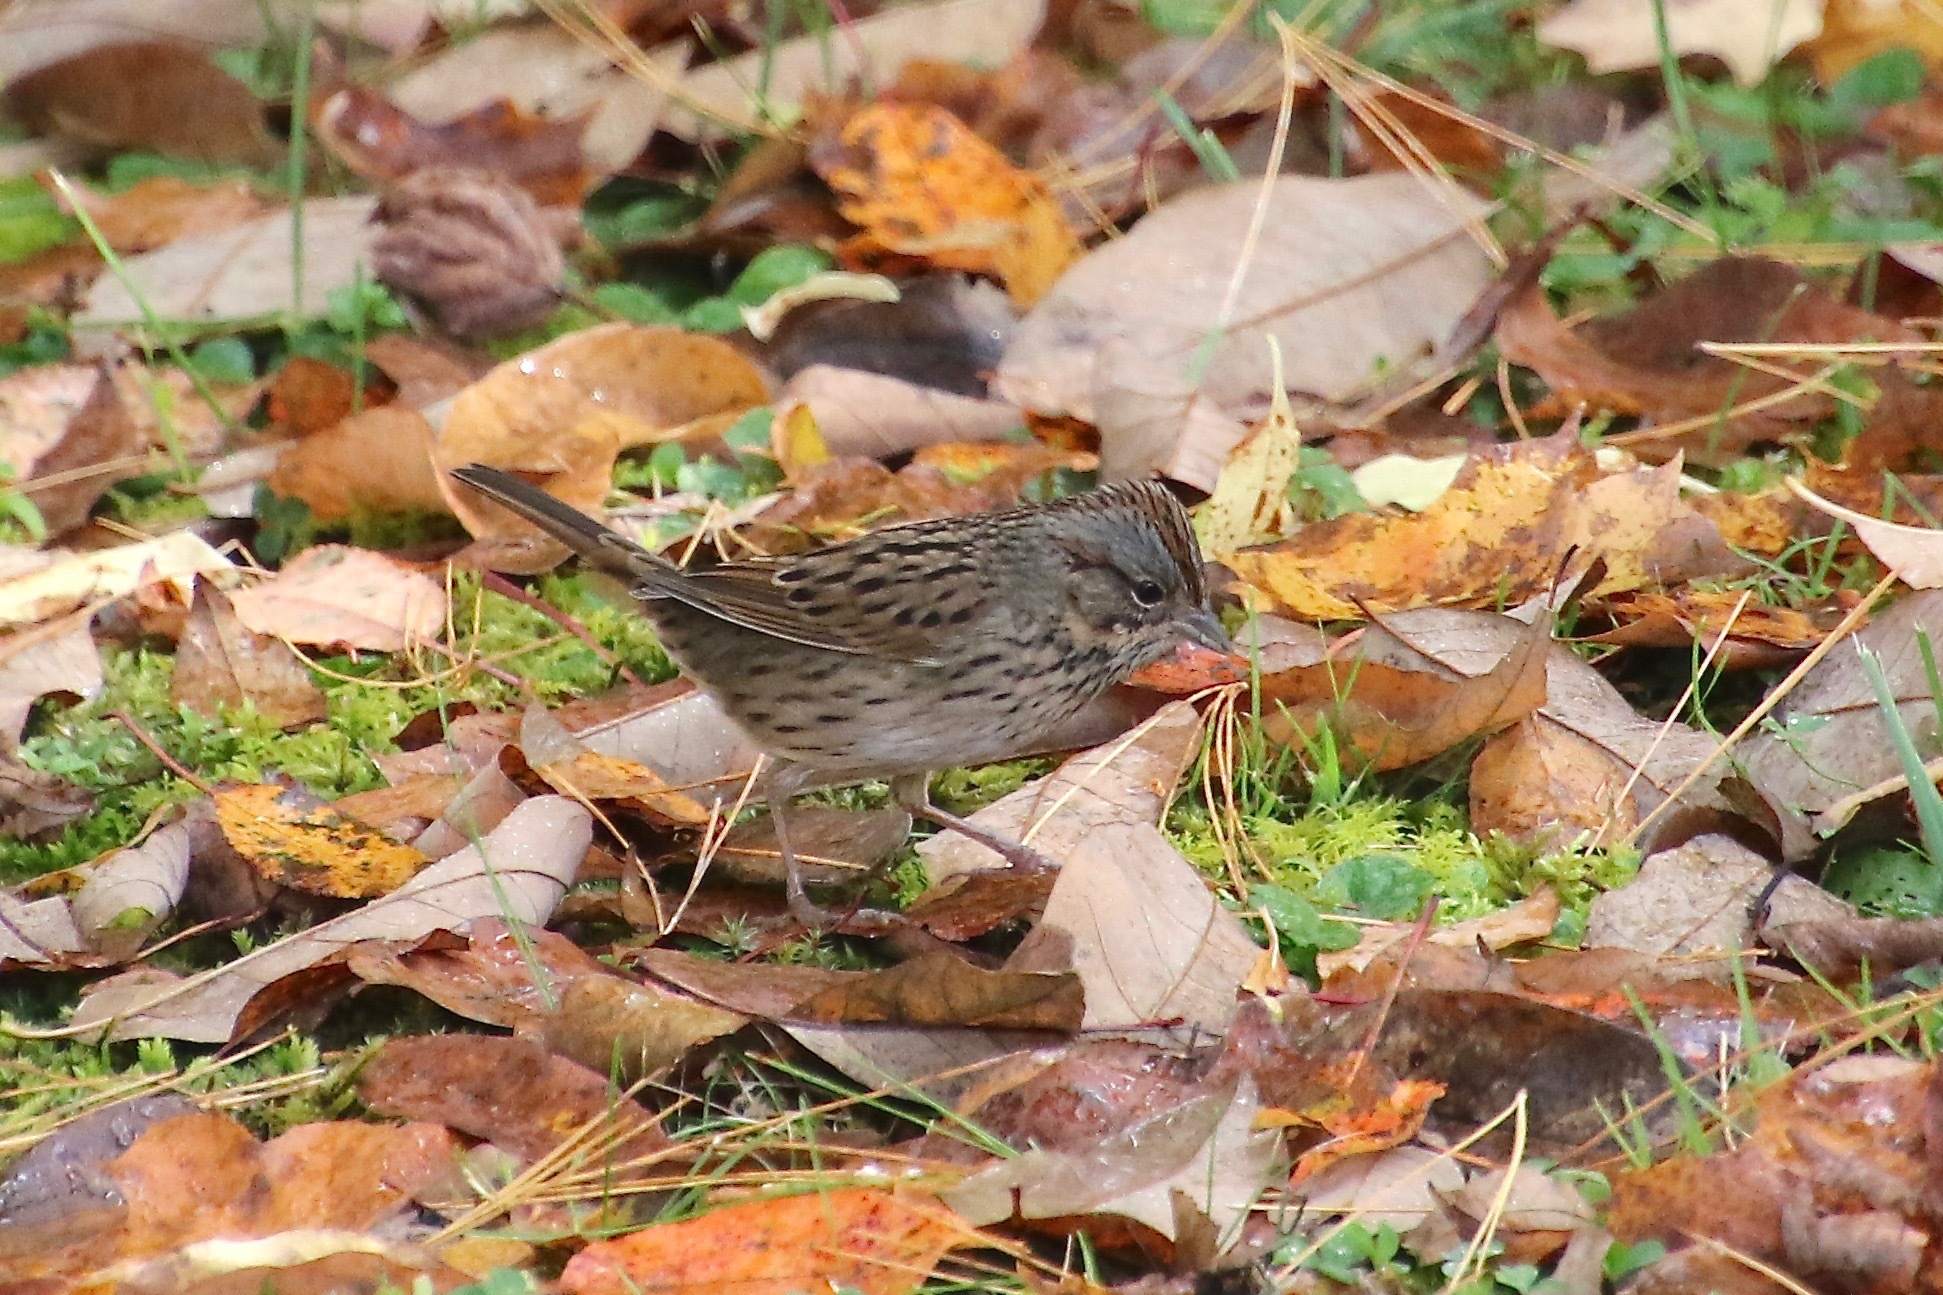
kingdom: Animalia
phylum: Chordata
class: Aves
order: Passeriformes
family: Passerellidae
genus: Melospiza
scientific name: Melospiza lincolnii
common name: Lincoln's sparrow
